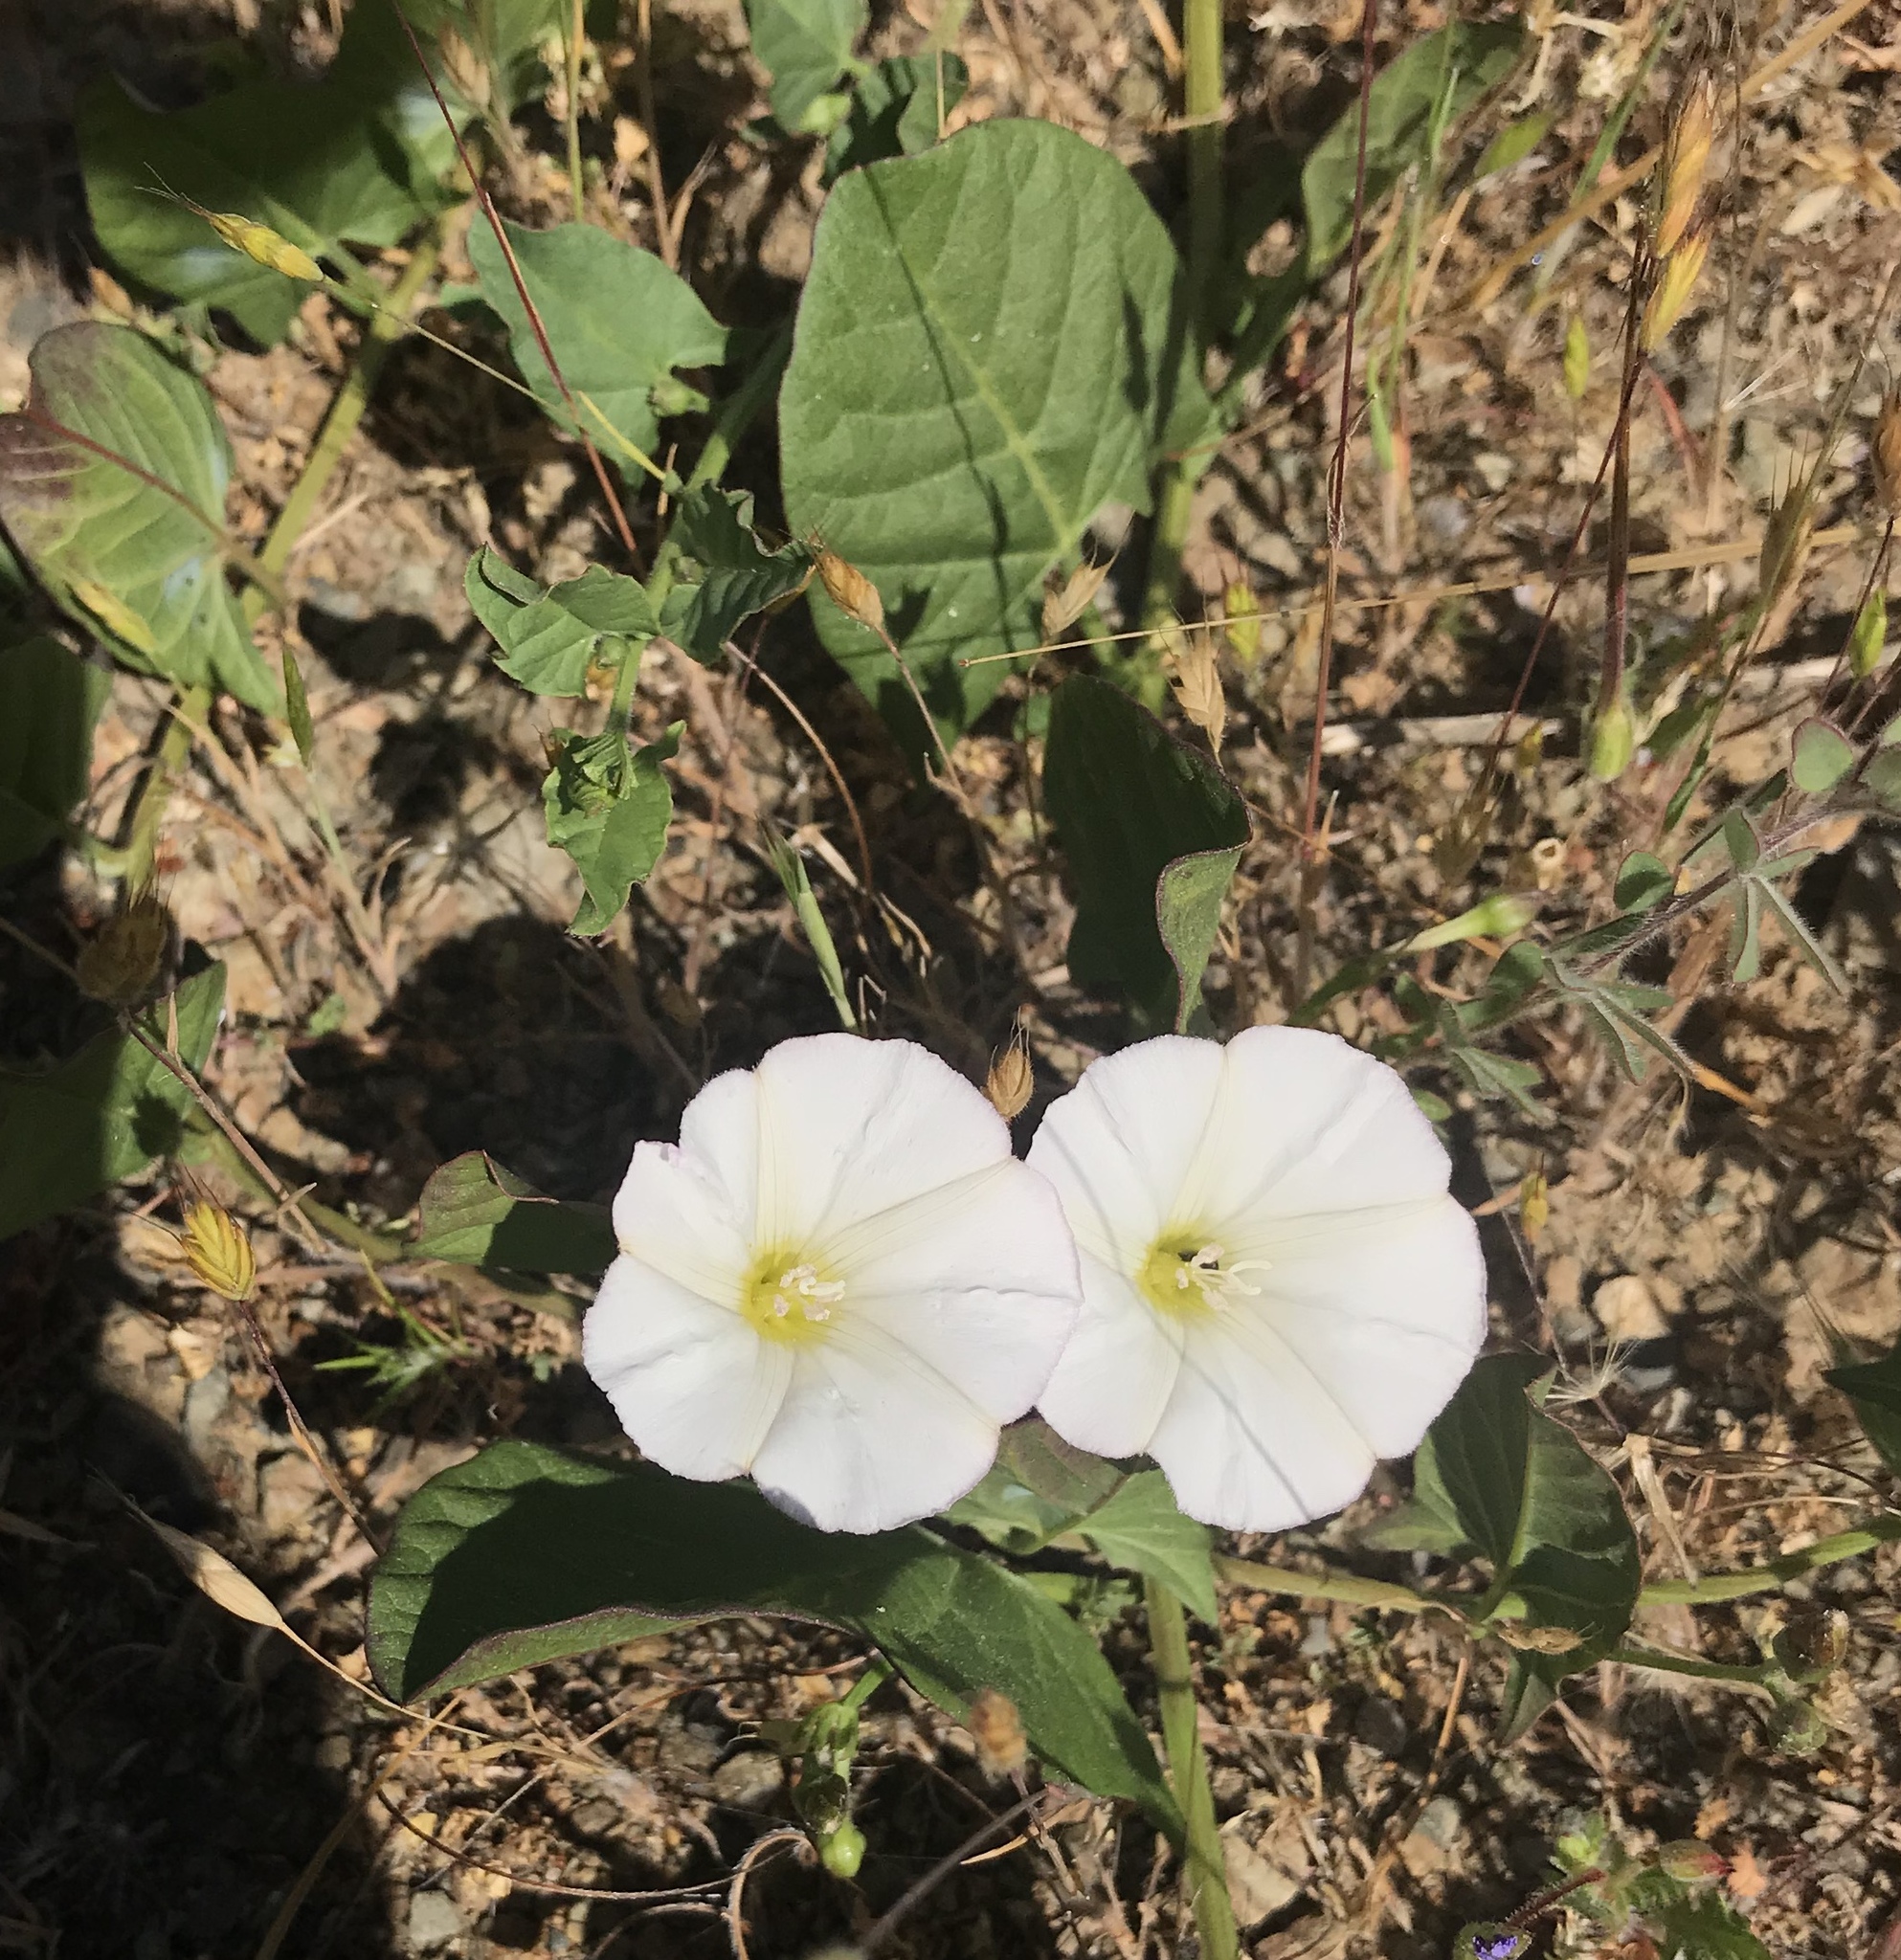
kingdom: Plantae
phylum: Tracheophyta
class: Magnoliopsida
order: Solanales
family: Convolvulaceae
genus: Convolvulus
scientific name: Convolvulus arvensis
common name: Field bindweed
